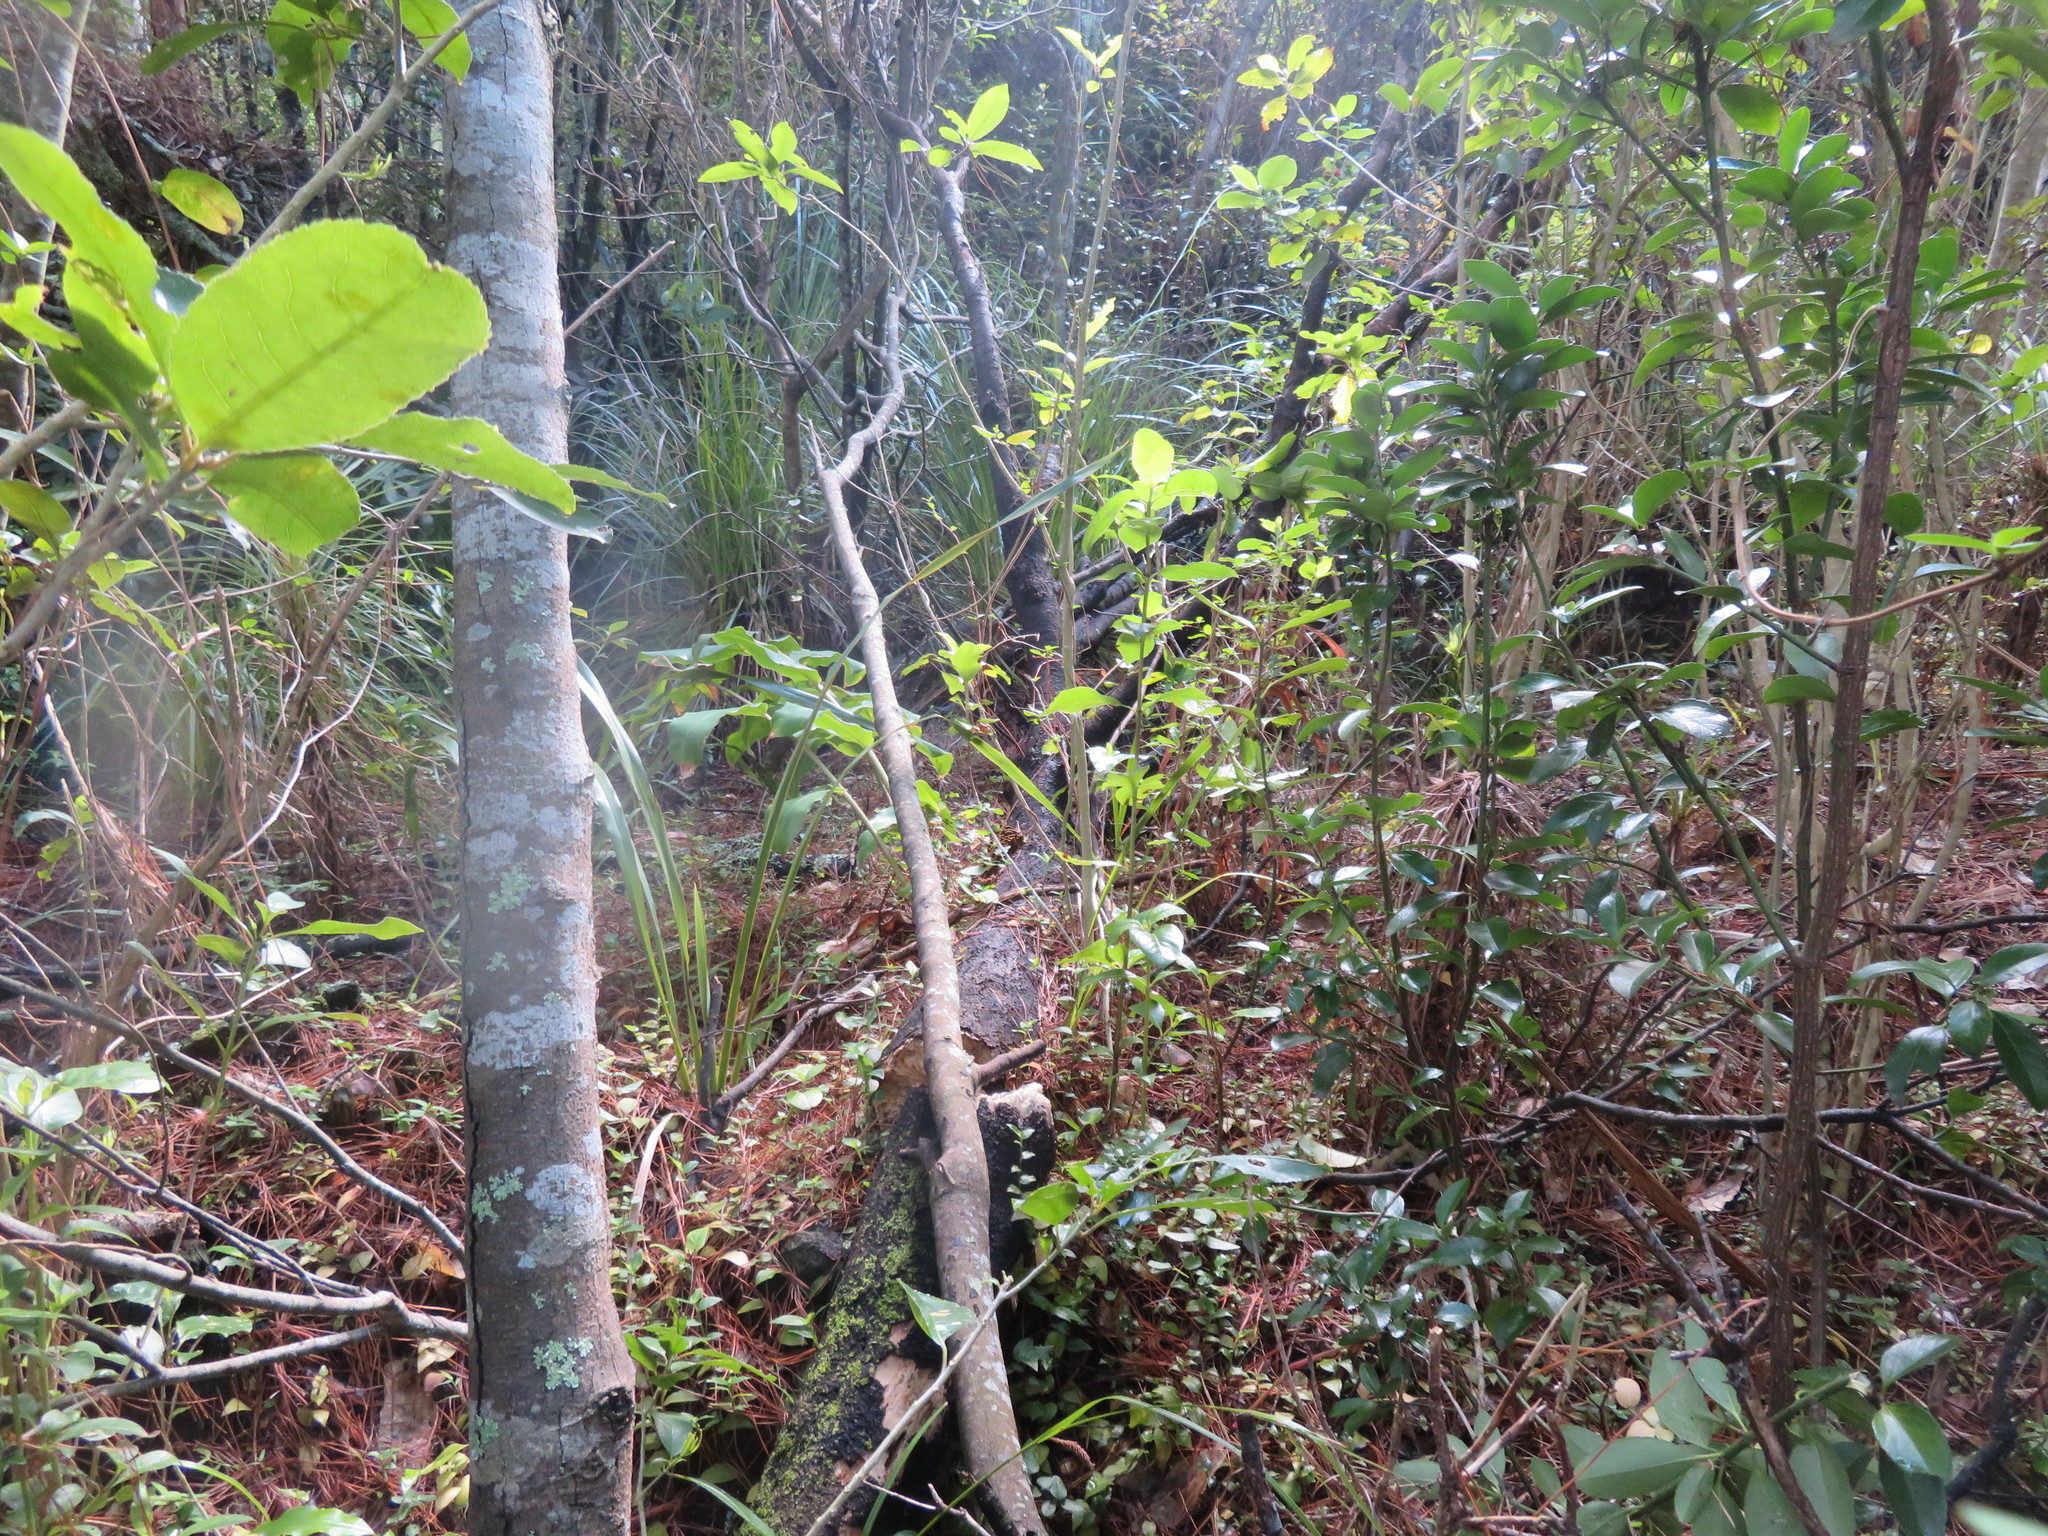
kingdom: Plantae
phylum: Tracheophyta
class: Liliopsida
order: Poales
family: Cyperaceae
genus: Gahnia
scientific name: Gahnia xanthocarpa
